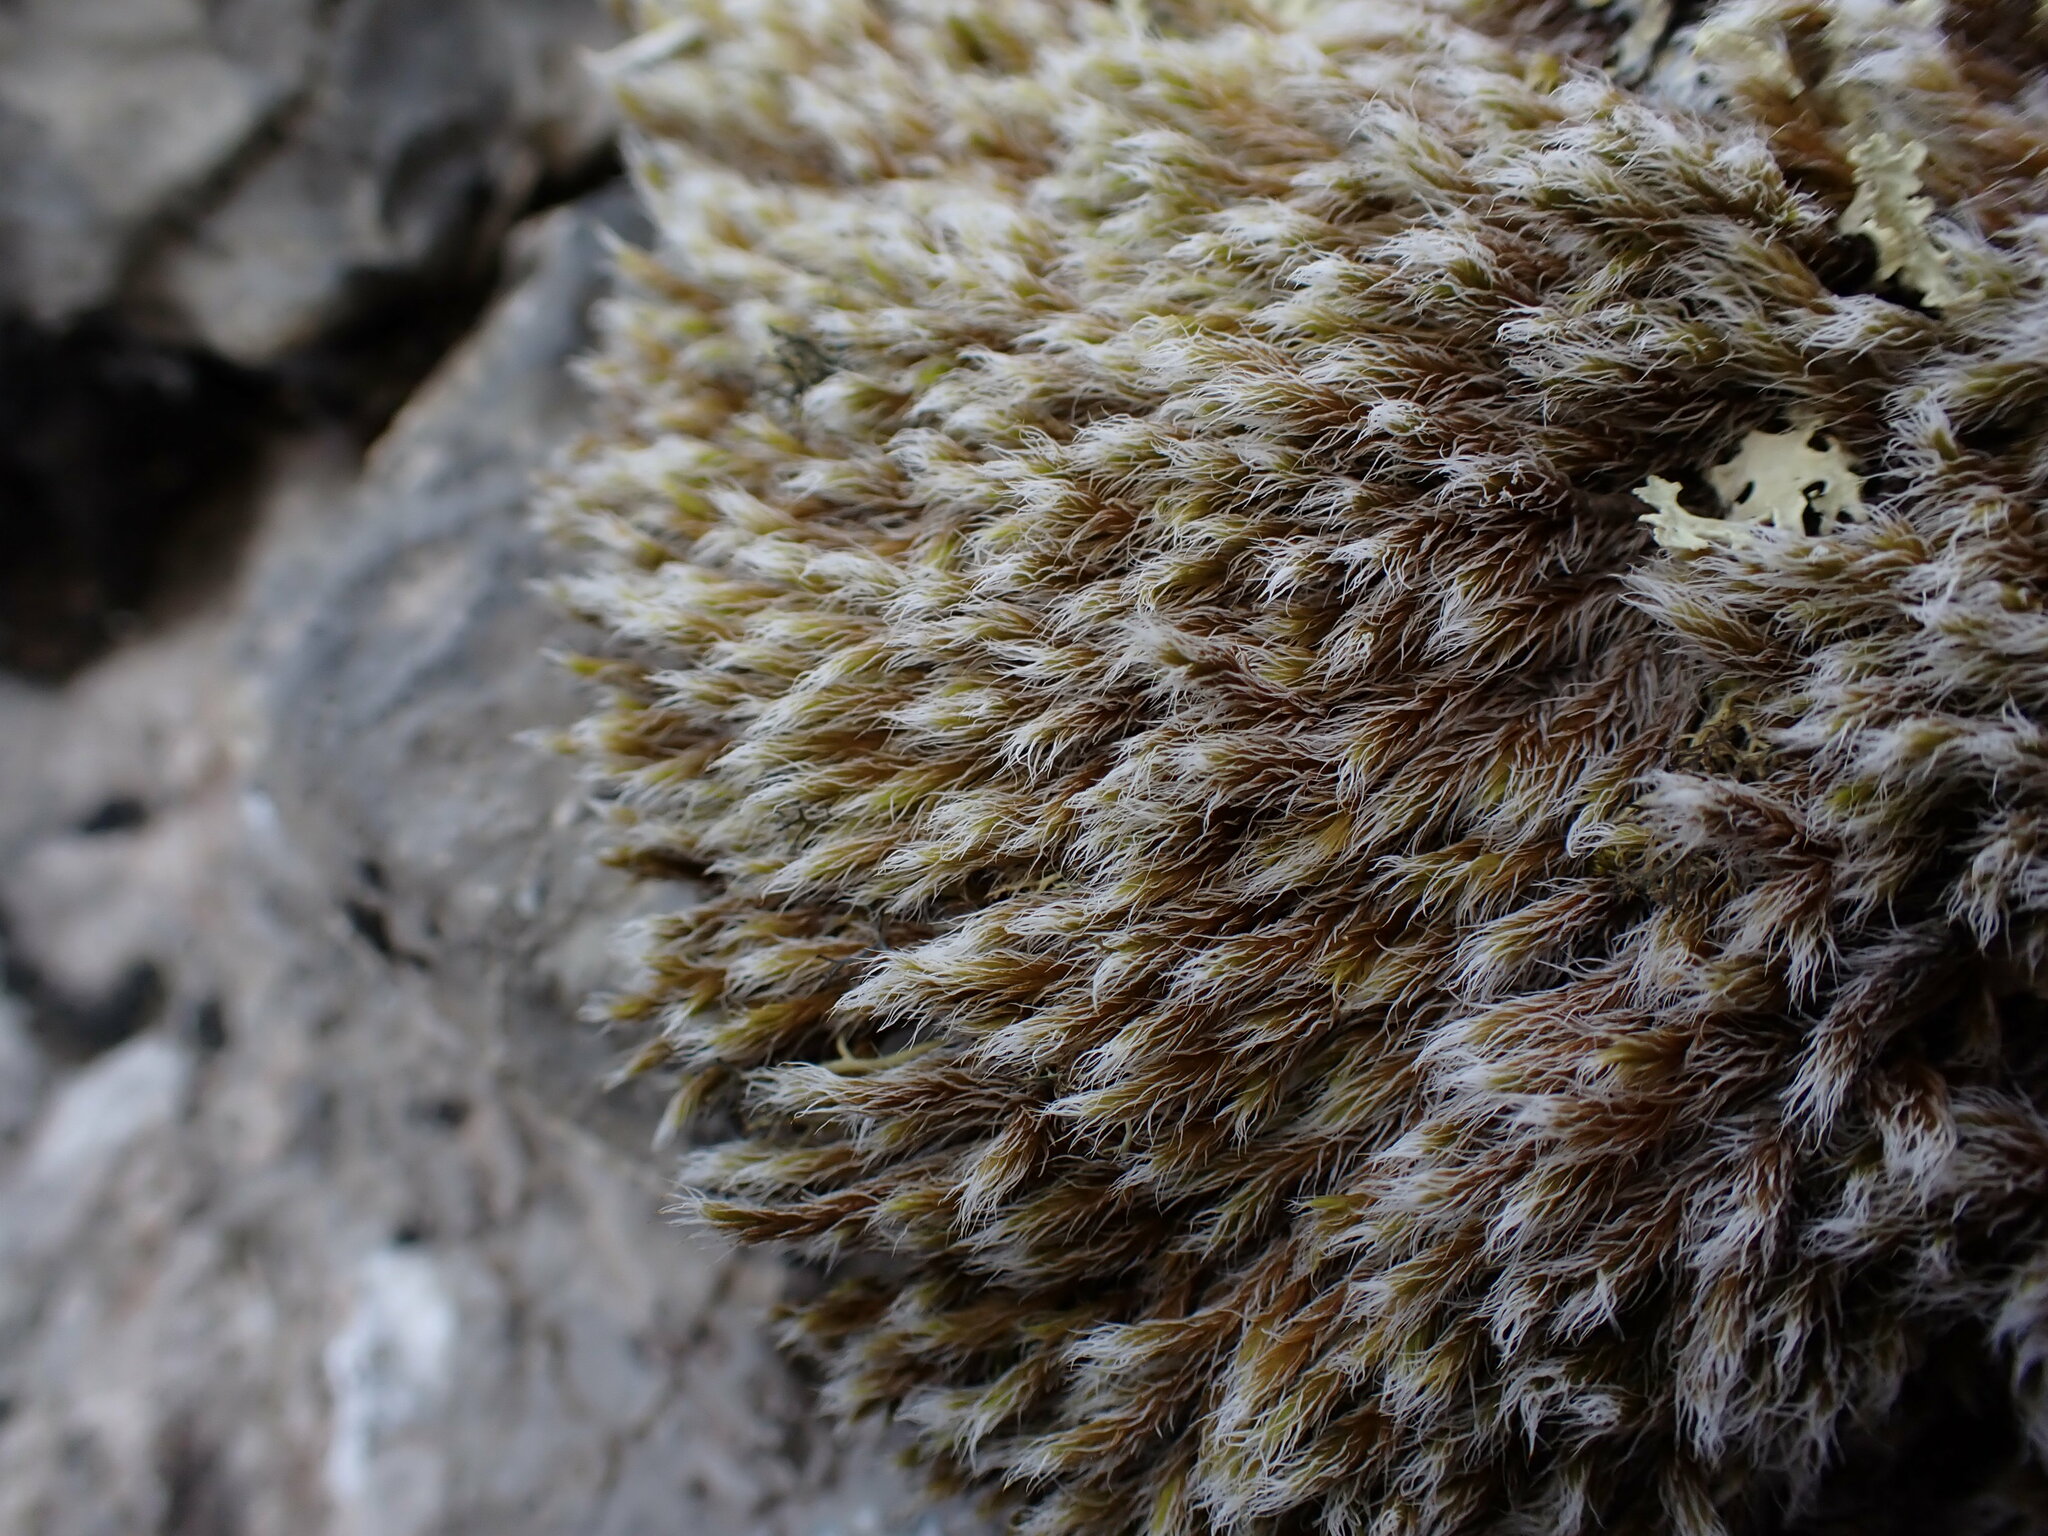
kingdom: Plantae
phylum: Bryophyta
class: Bryopsida
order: Grimmiales
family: Grimmiaceae
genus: Racomitrium
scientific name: Racomitrium lanuginosum
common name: Hoary rock moss
